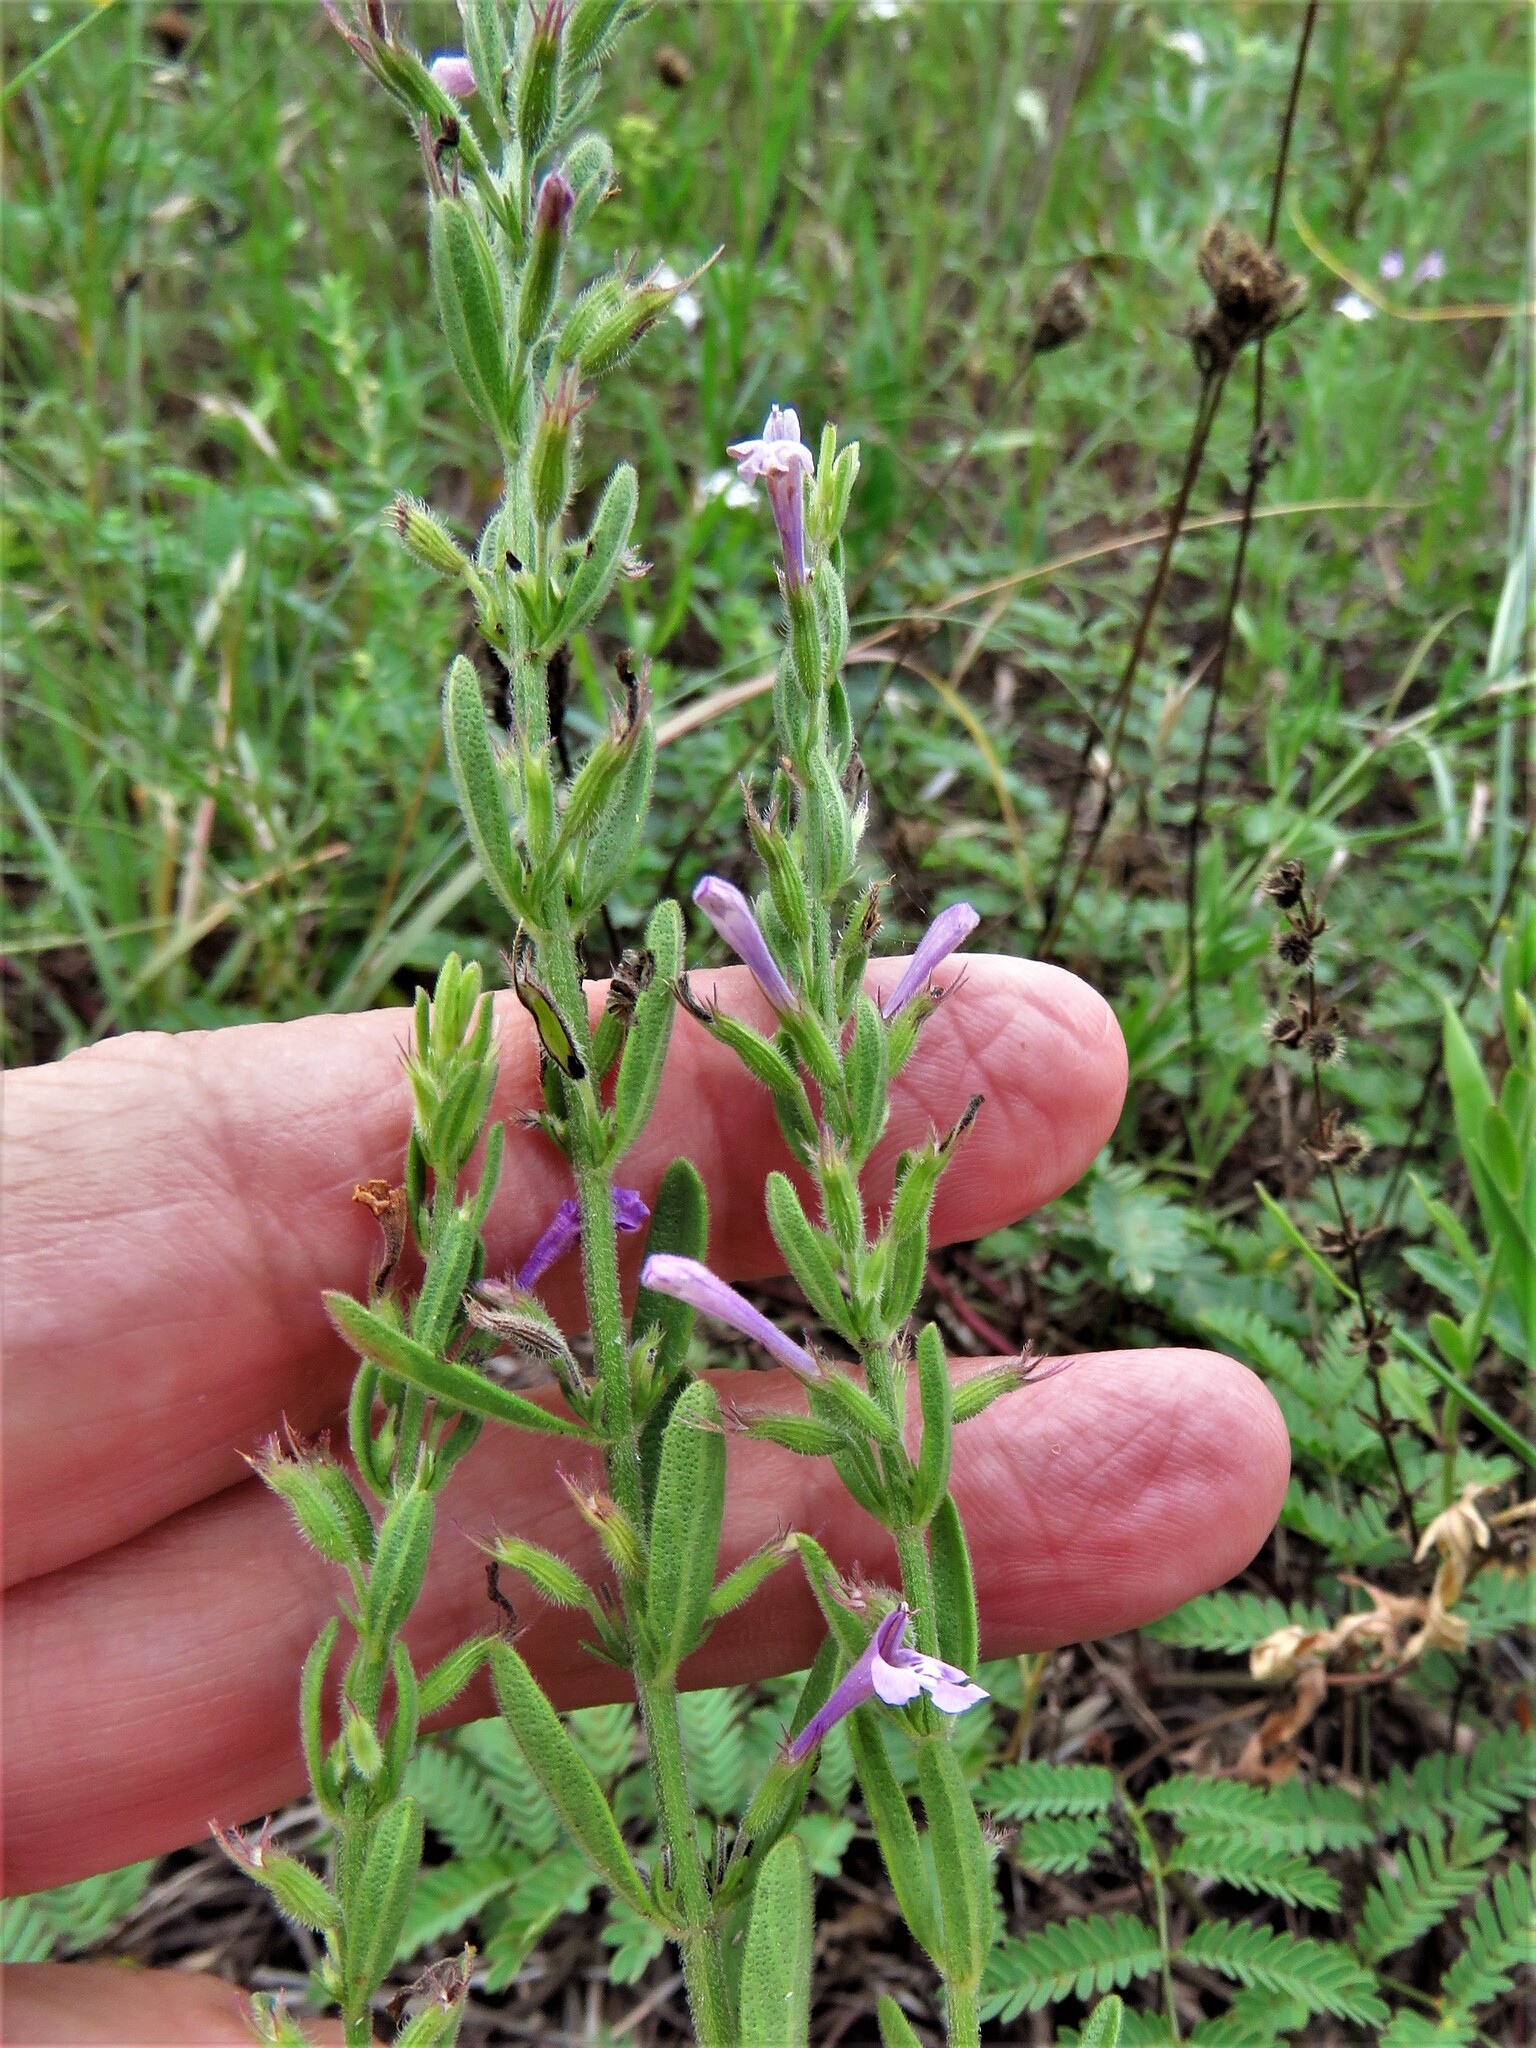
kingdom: Plantae
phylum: Tracheophyta
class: Magnoliopsida
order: Lamiales
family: Lamiaceae
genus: Hedeoma
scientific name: Hedeoma reverchonii
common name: Reverchon's false penny-royal
